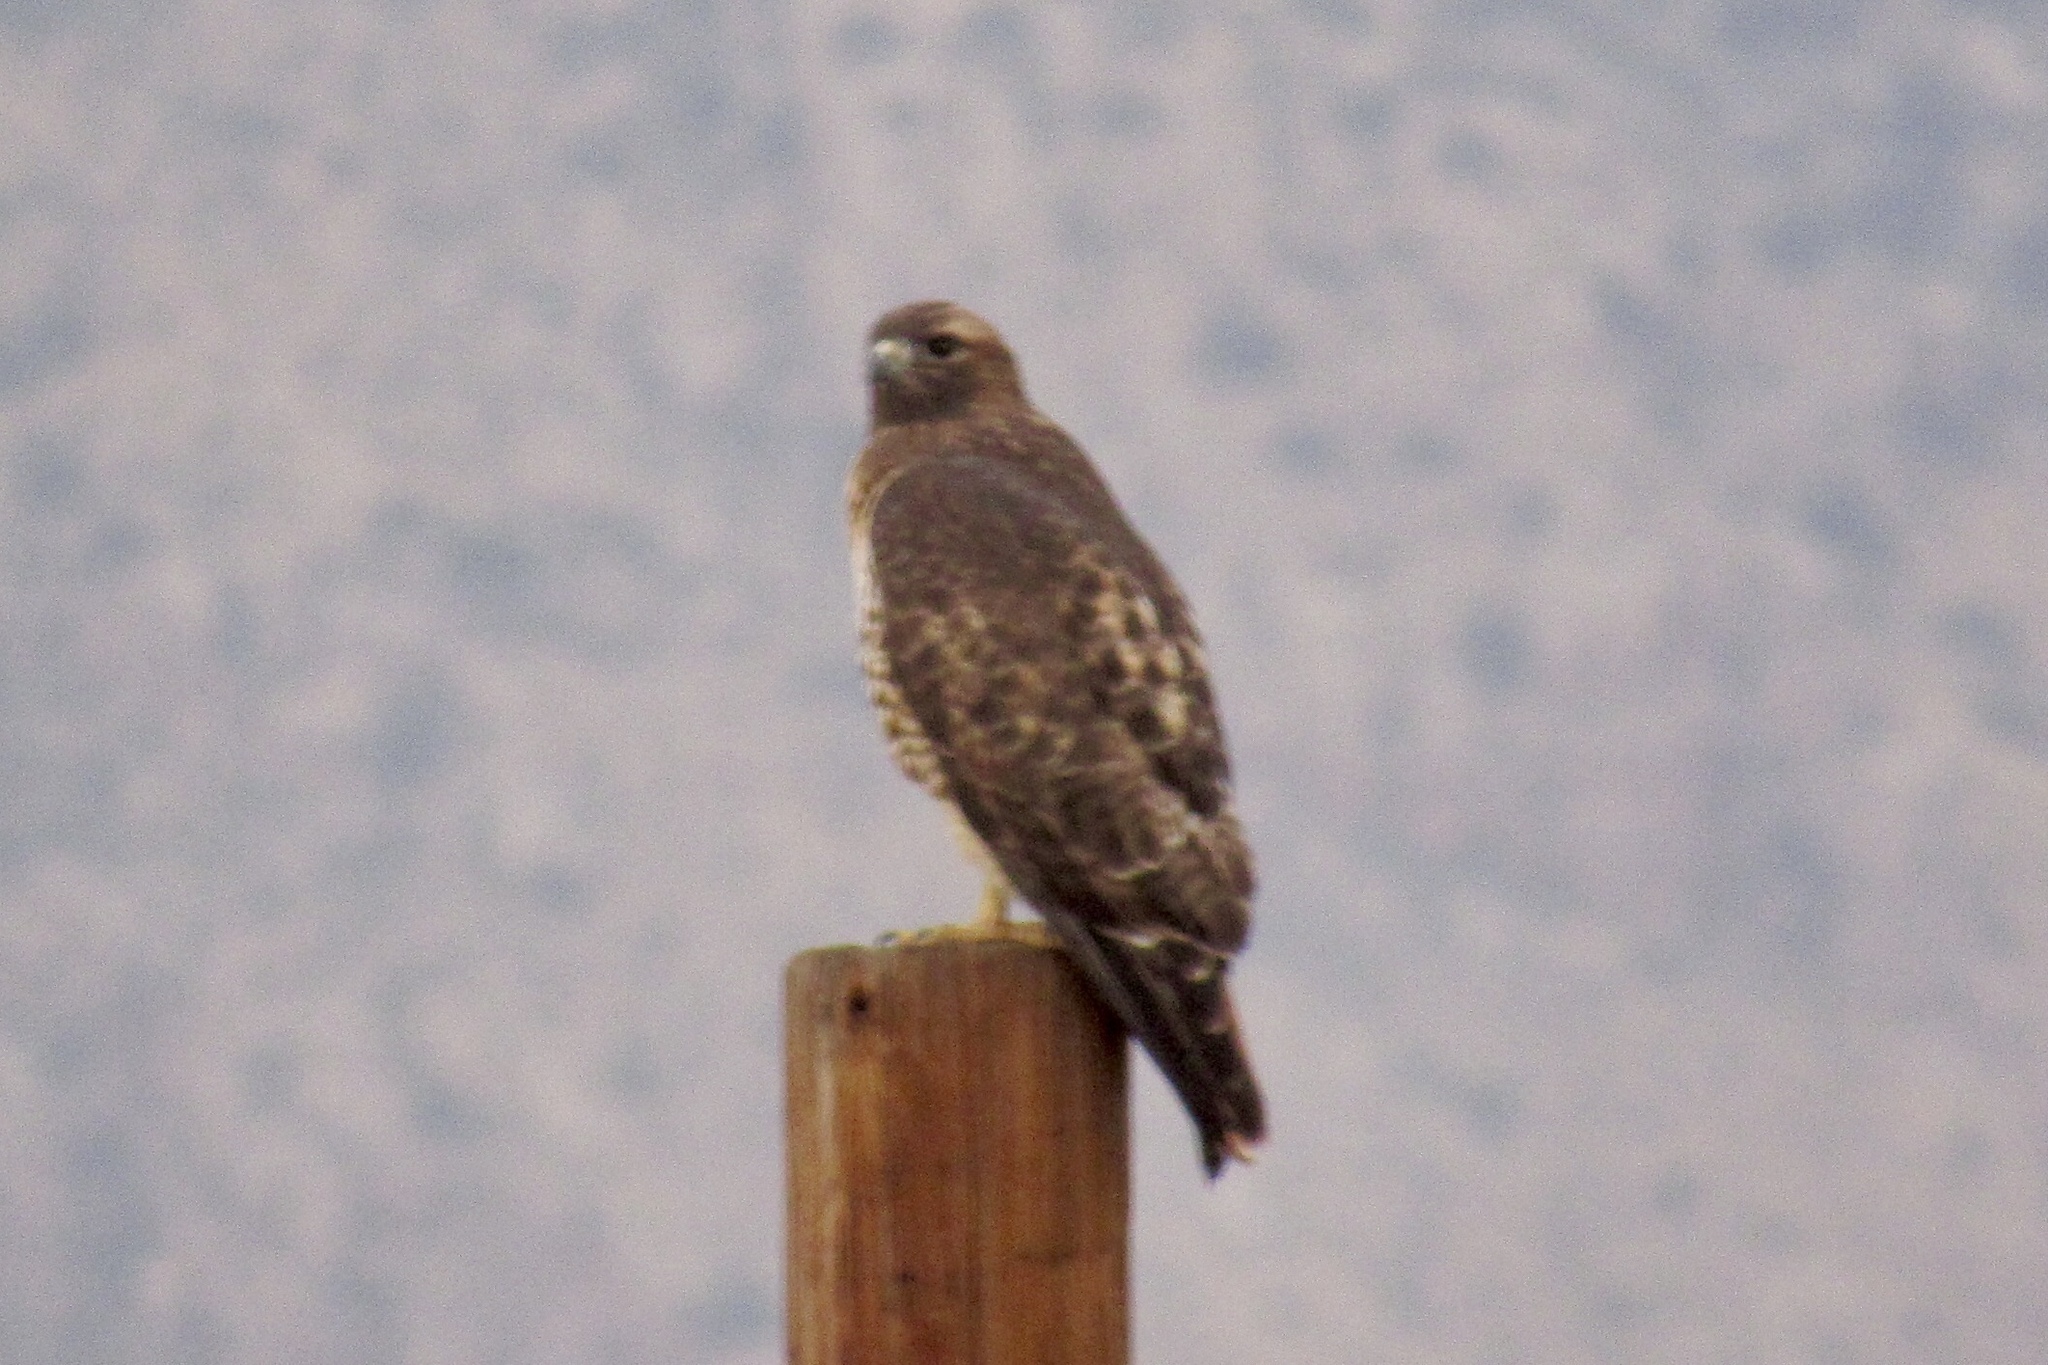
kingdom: Animalia
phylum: Chordata
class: Aves
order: Accipitriformes
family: Accipitridae
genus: Buteo
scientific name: Buteo jamaicensis
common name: Red-tailed hawk
